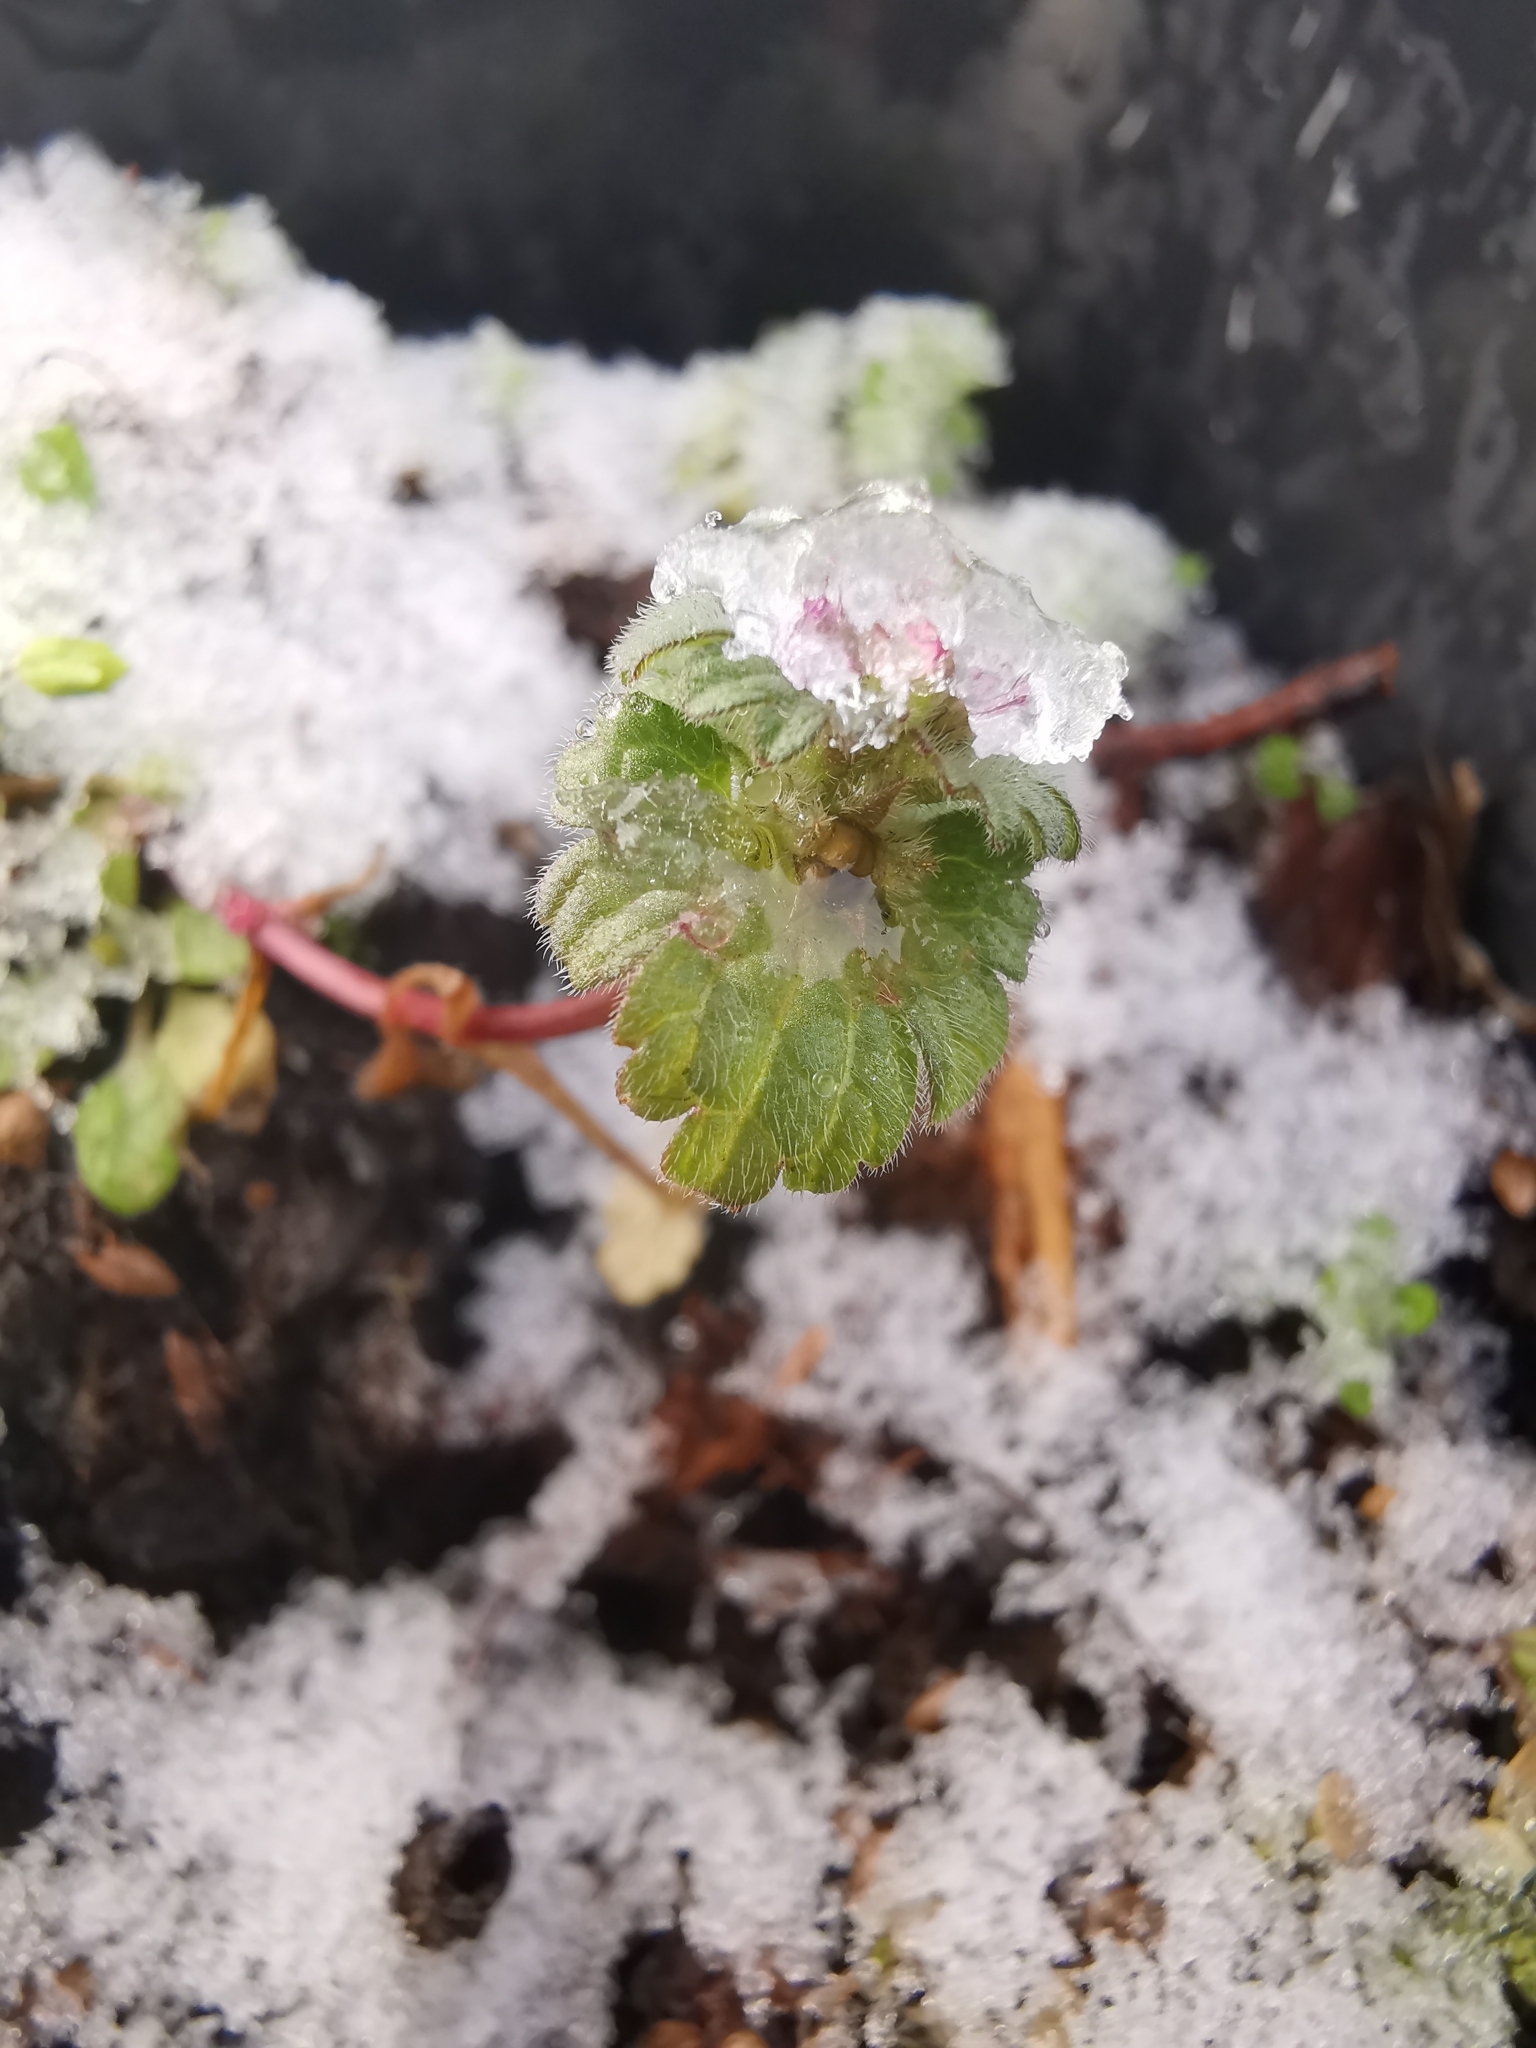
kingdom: Plantae
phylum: Tracheophyta
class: Magnoliopsida
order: Lamiales
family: Lamiaceae
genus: Lamium
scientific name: Lamium amplexicaule
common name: Henbit dead-nettle
